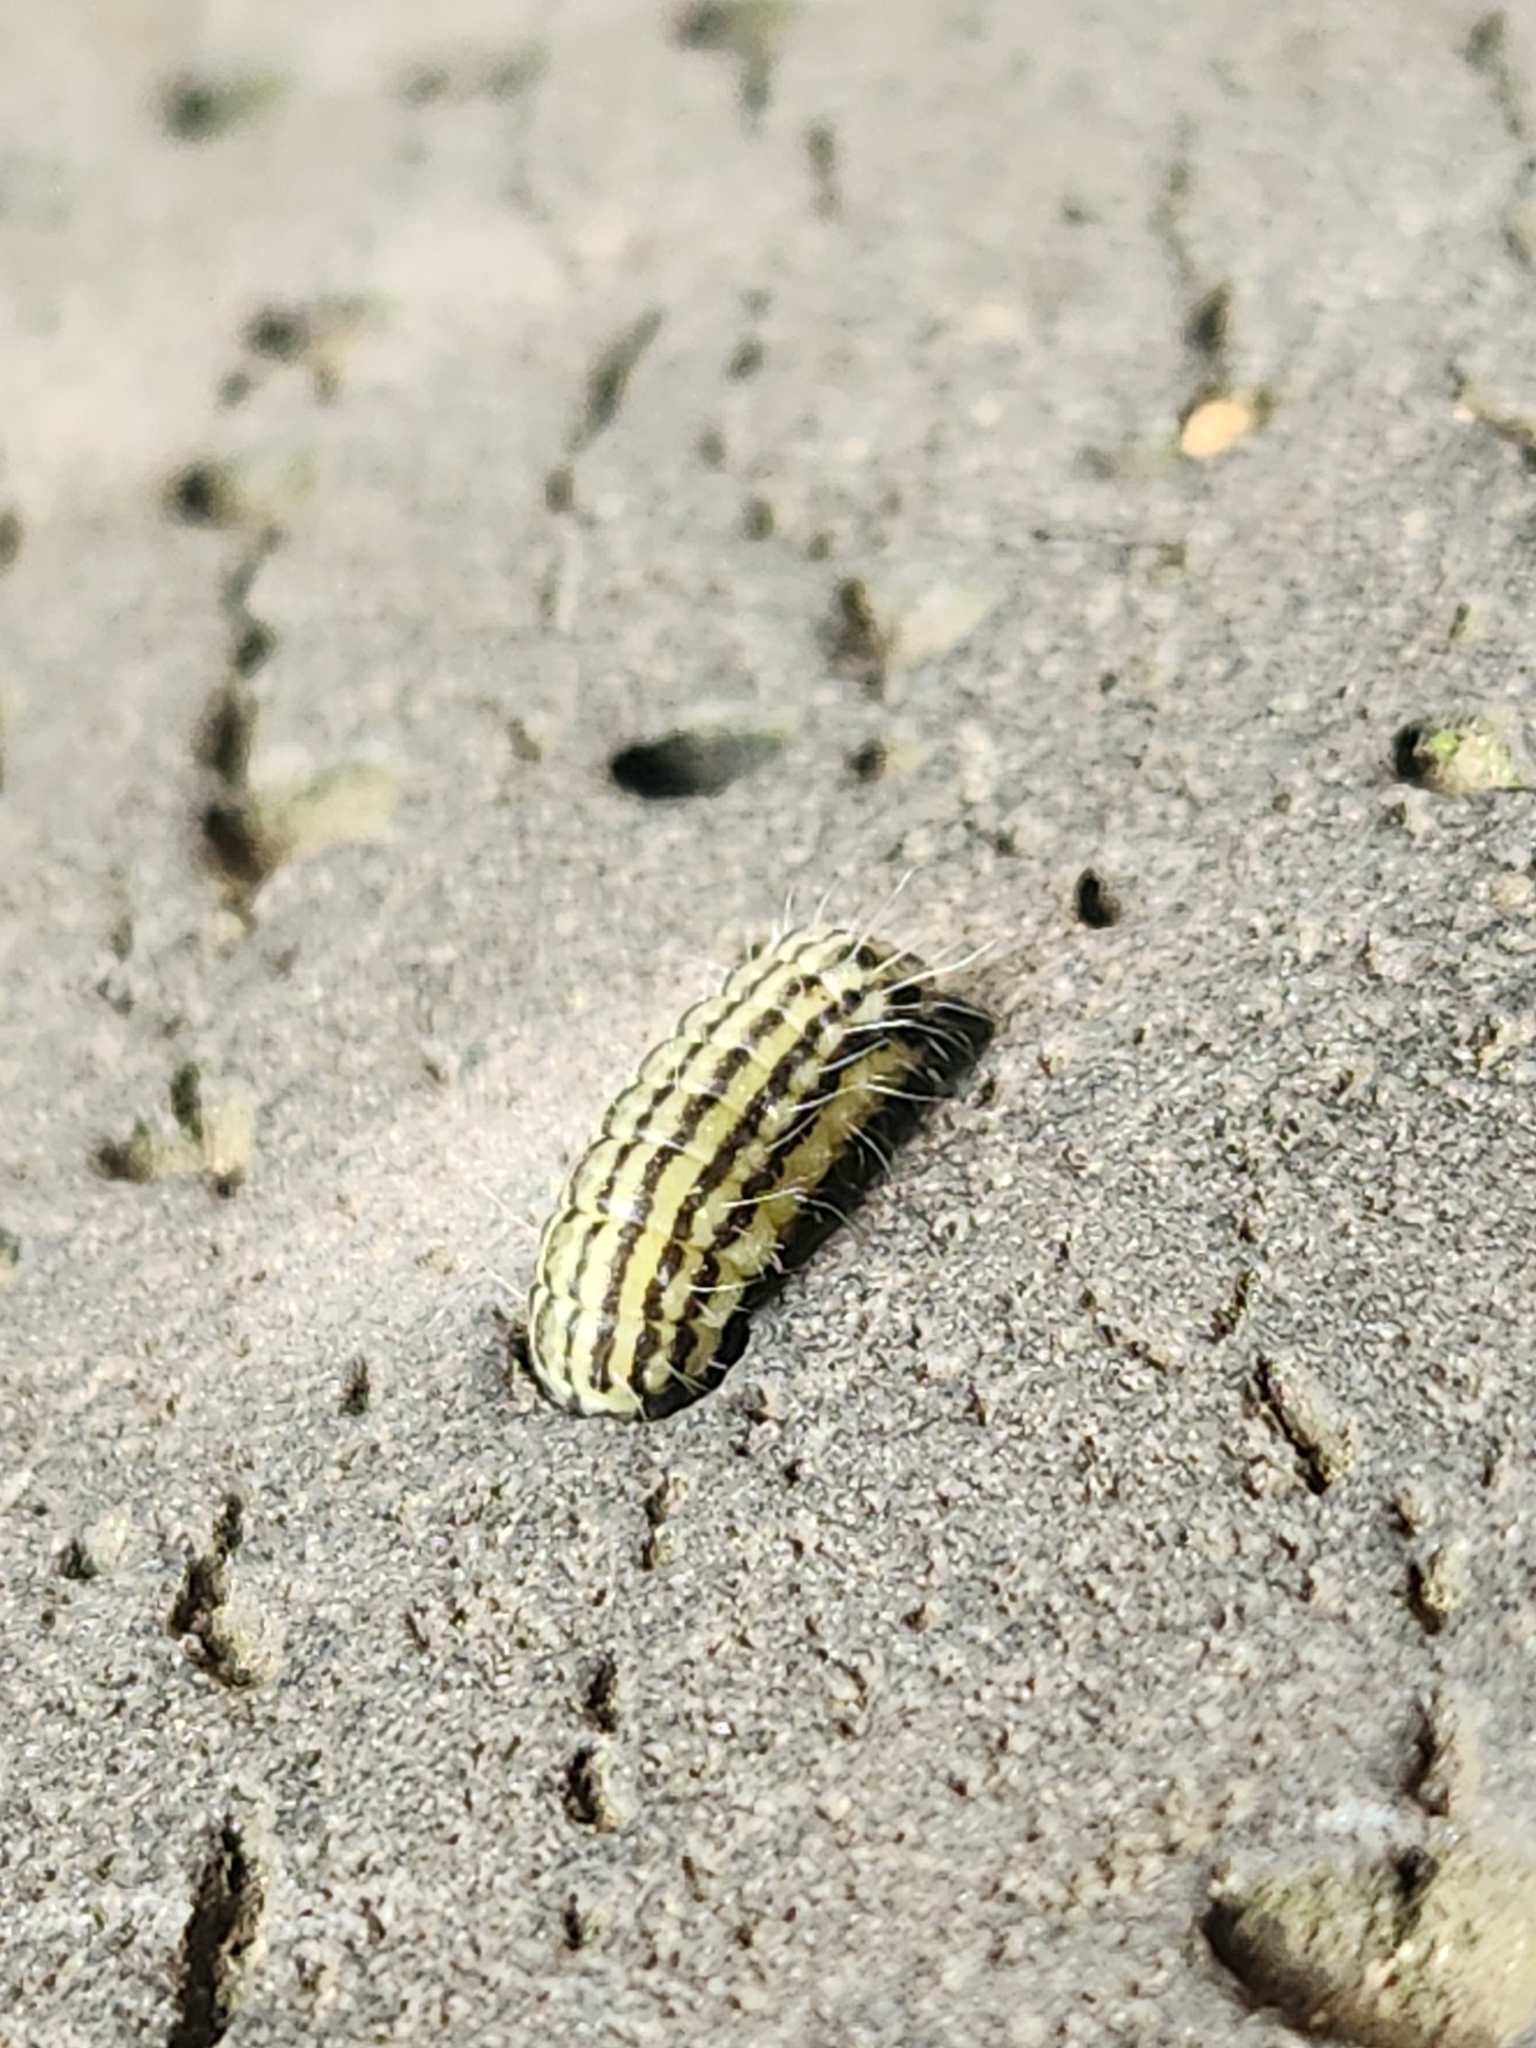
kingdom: Animalia
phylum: Arthropoda
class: Insecta
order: Lepidoptera
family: Zygaenidae
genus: Sinica
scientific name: Sinica sinica
